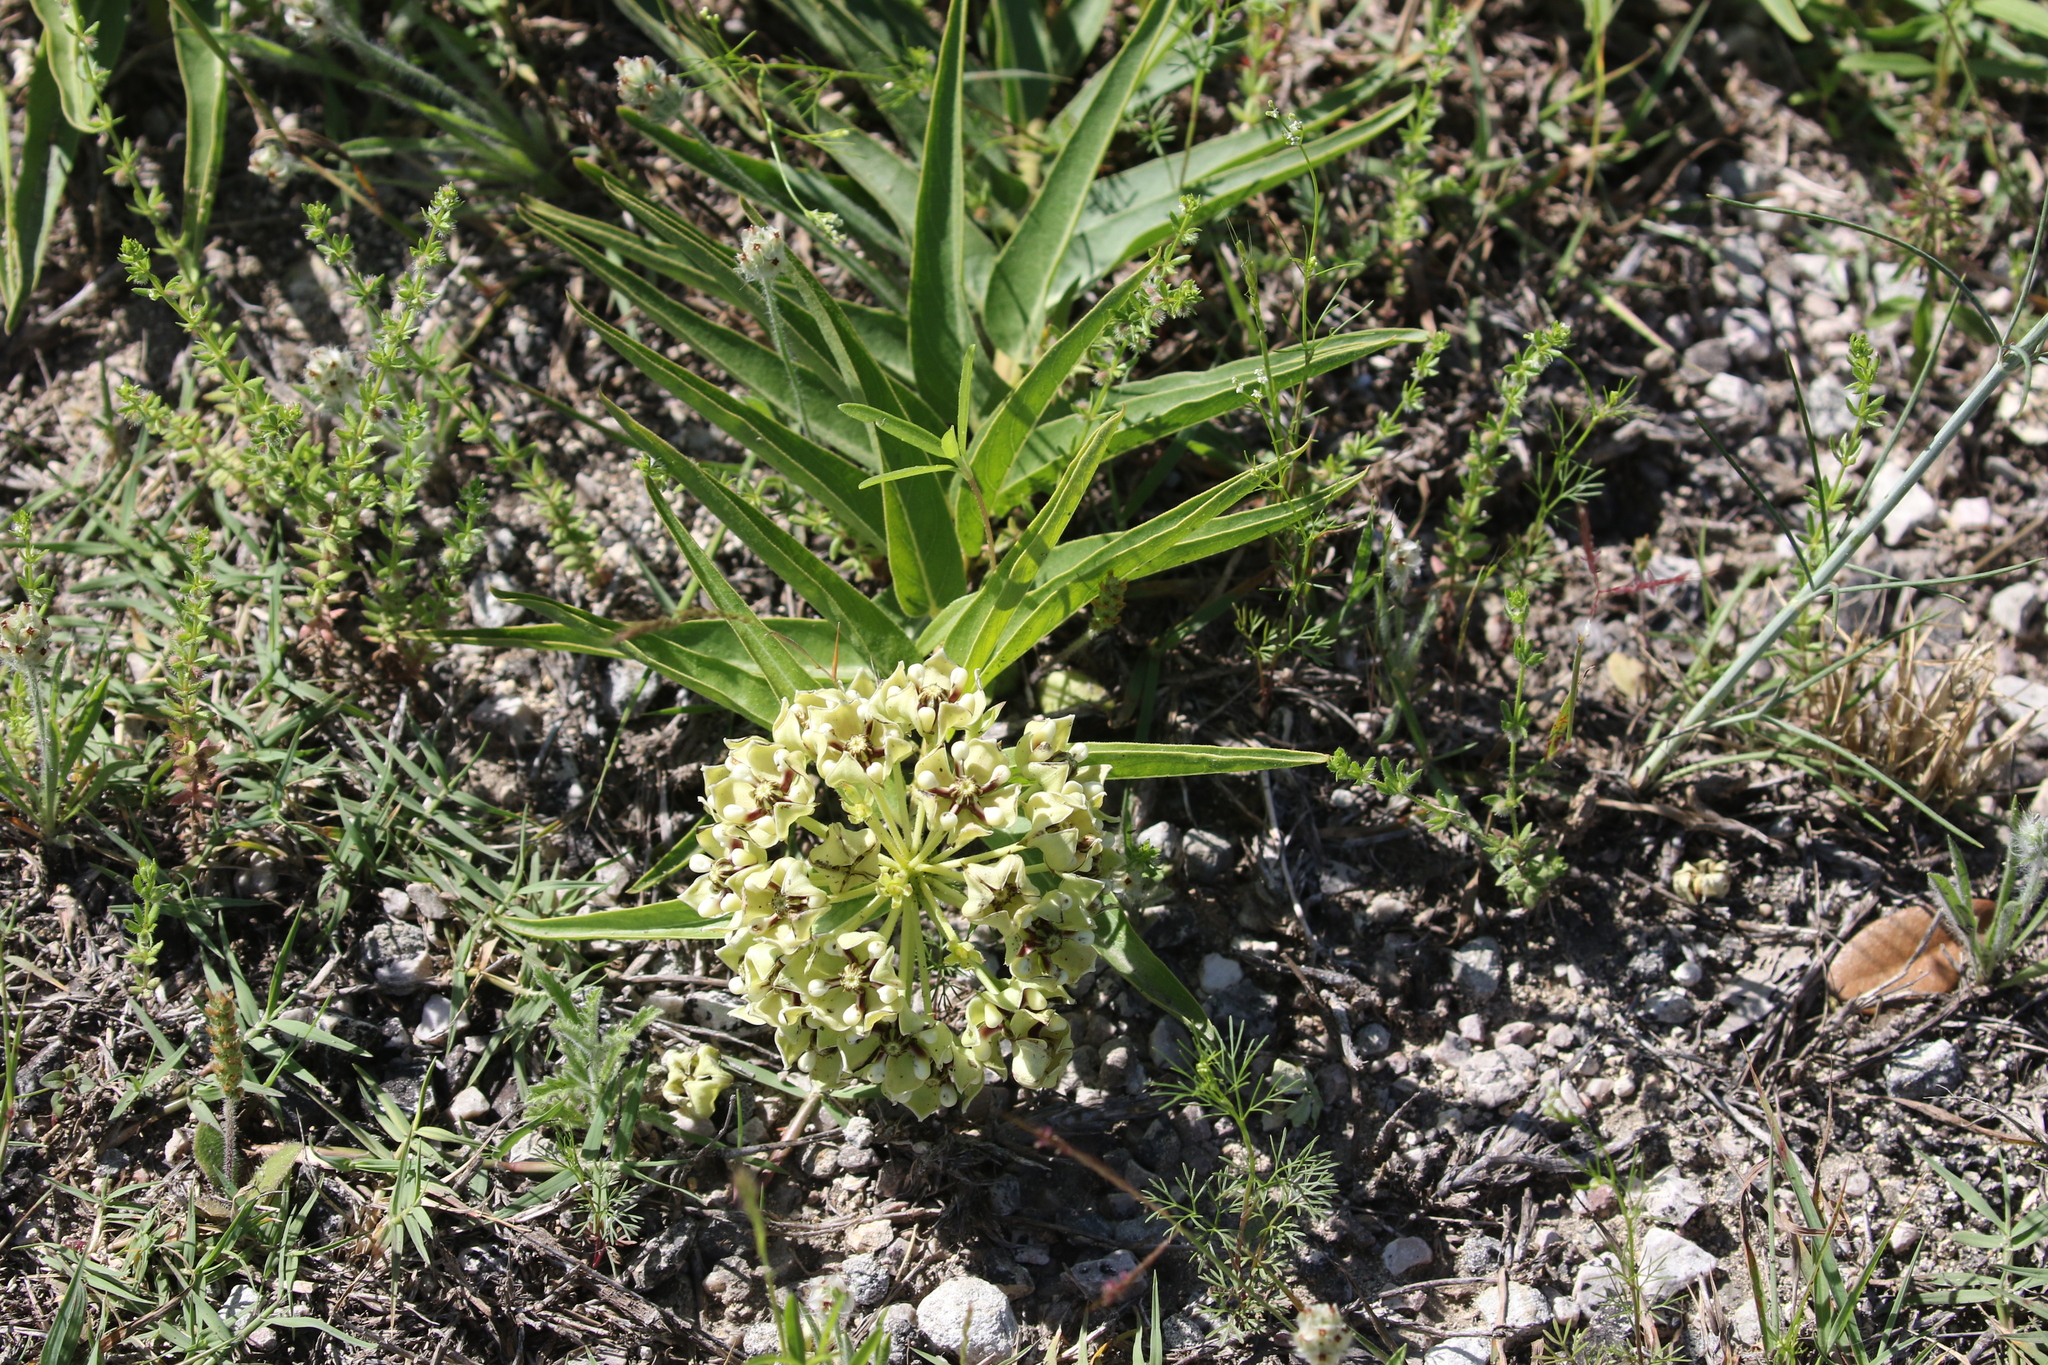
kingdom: Plantae
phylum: Tracheophyta
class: Magnoliopsida
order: Gentianales
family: Apocynaceae
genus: Asclepias
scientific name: Asclepias asperula
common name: Antelope horns
